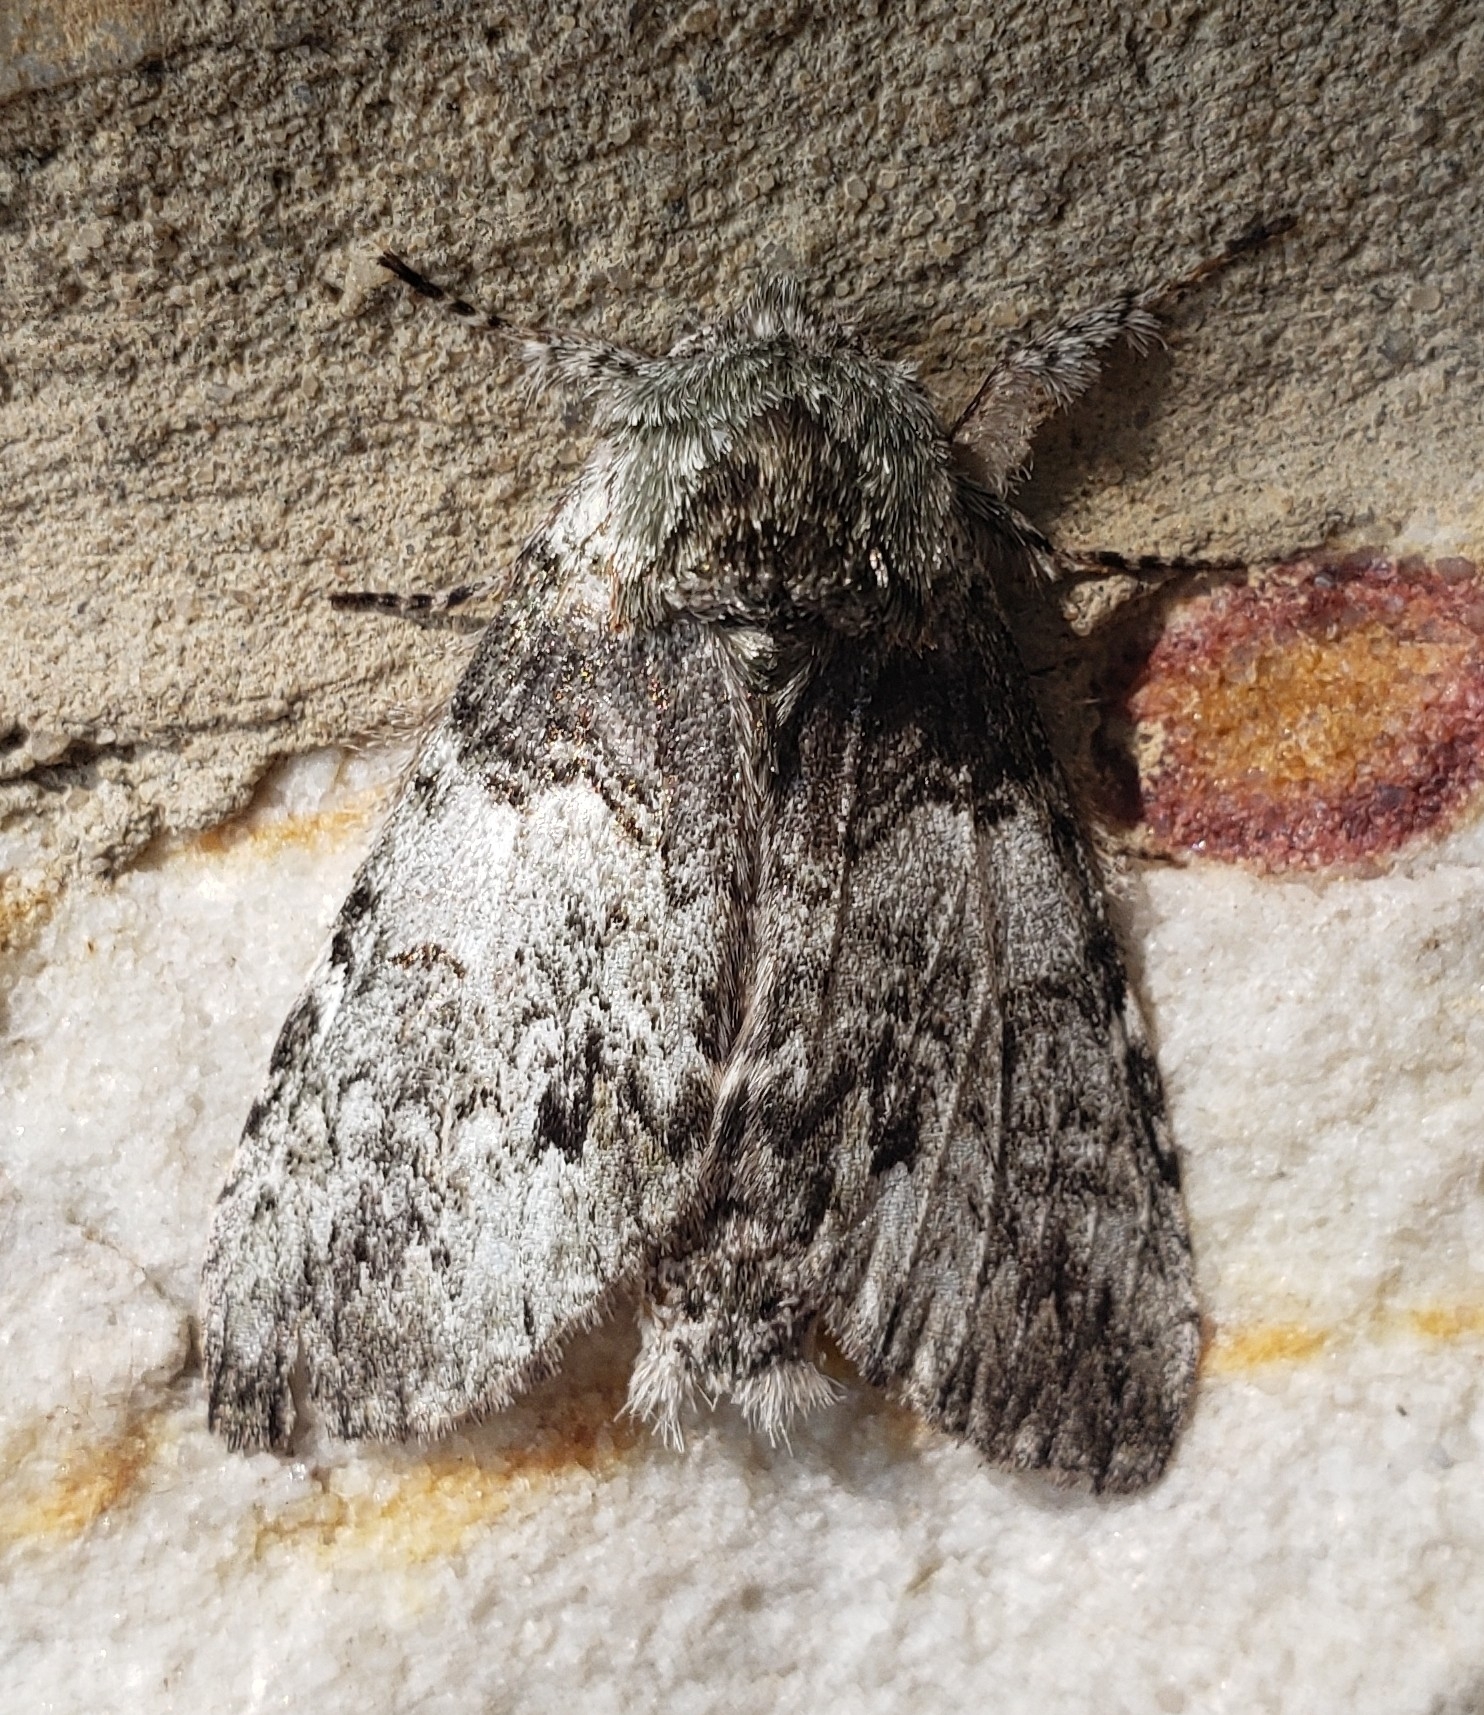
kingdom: Animalia
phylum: Arthropoda
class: Insecta
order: Lepidoptera
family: Notodontidae
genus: Macrurocampa
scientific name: Macrurocampa marthesia
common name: Mottled prominent
